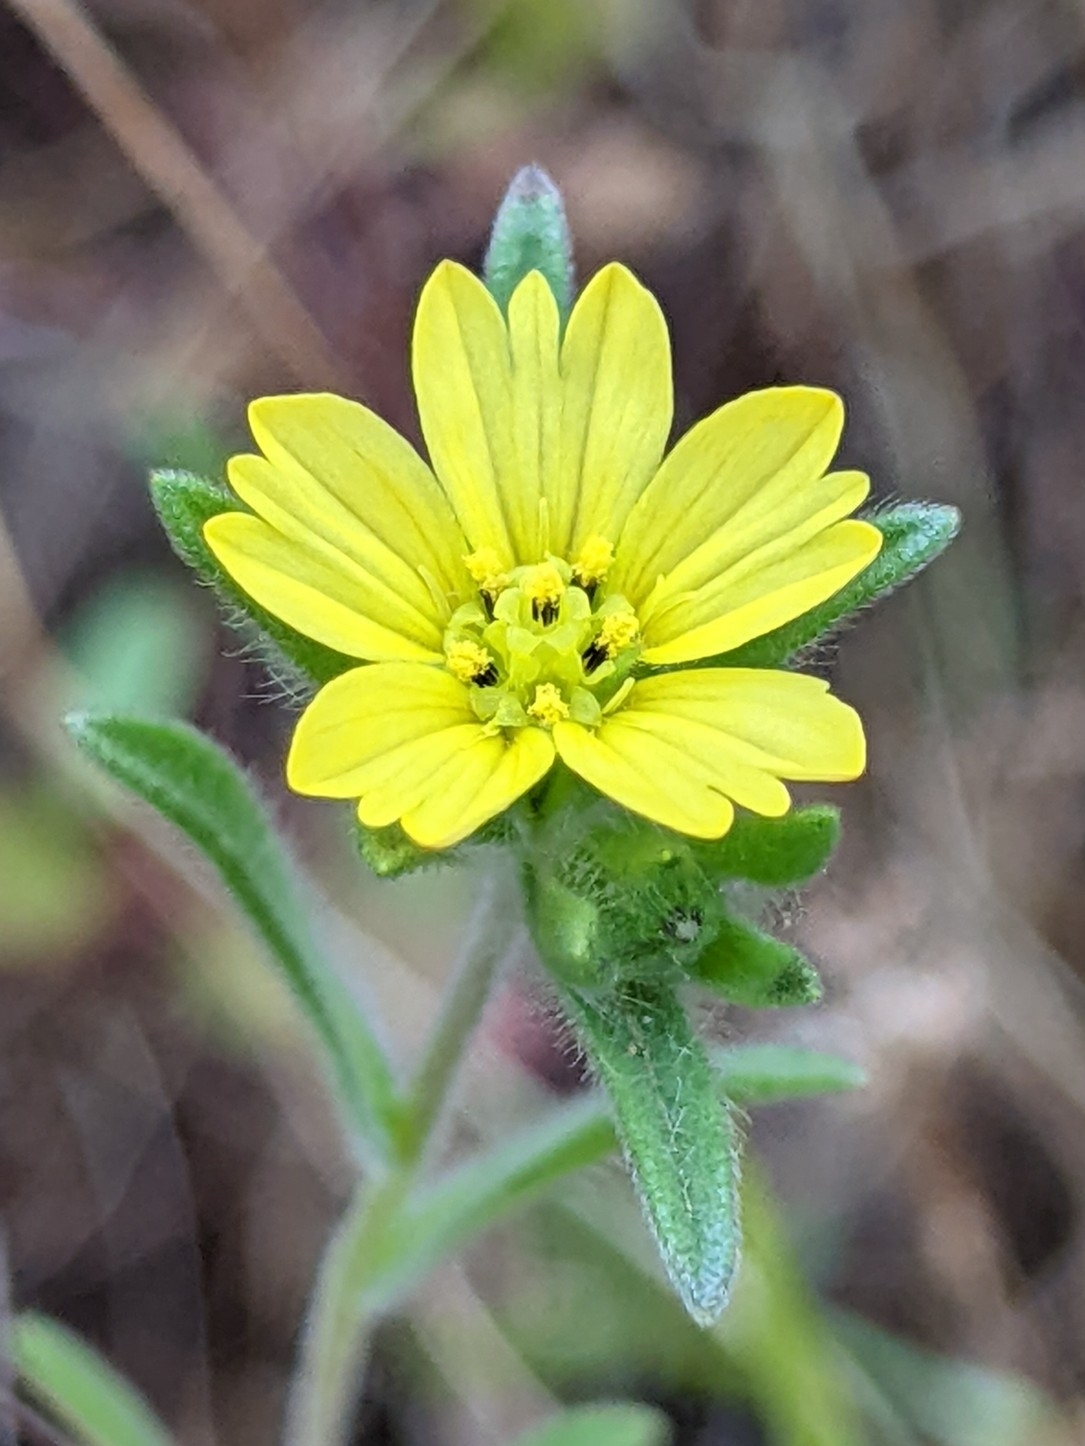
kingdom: Plantae
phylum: Tracheophyta
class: Magnoliopsida
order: Asterales
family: Asteraceae
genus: Lagophylla
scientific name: Lagophylla ramosissima
